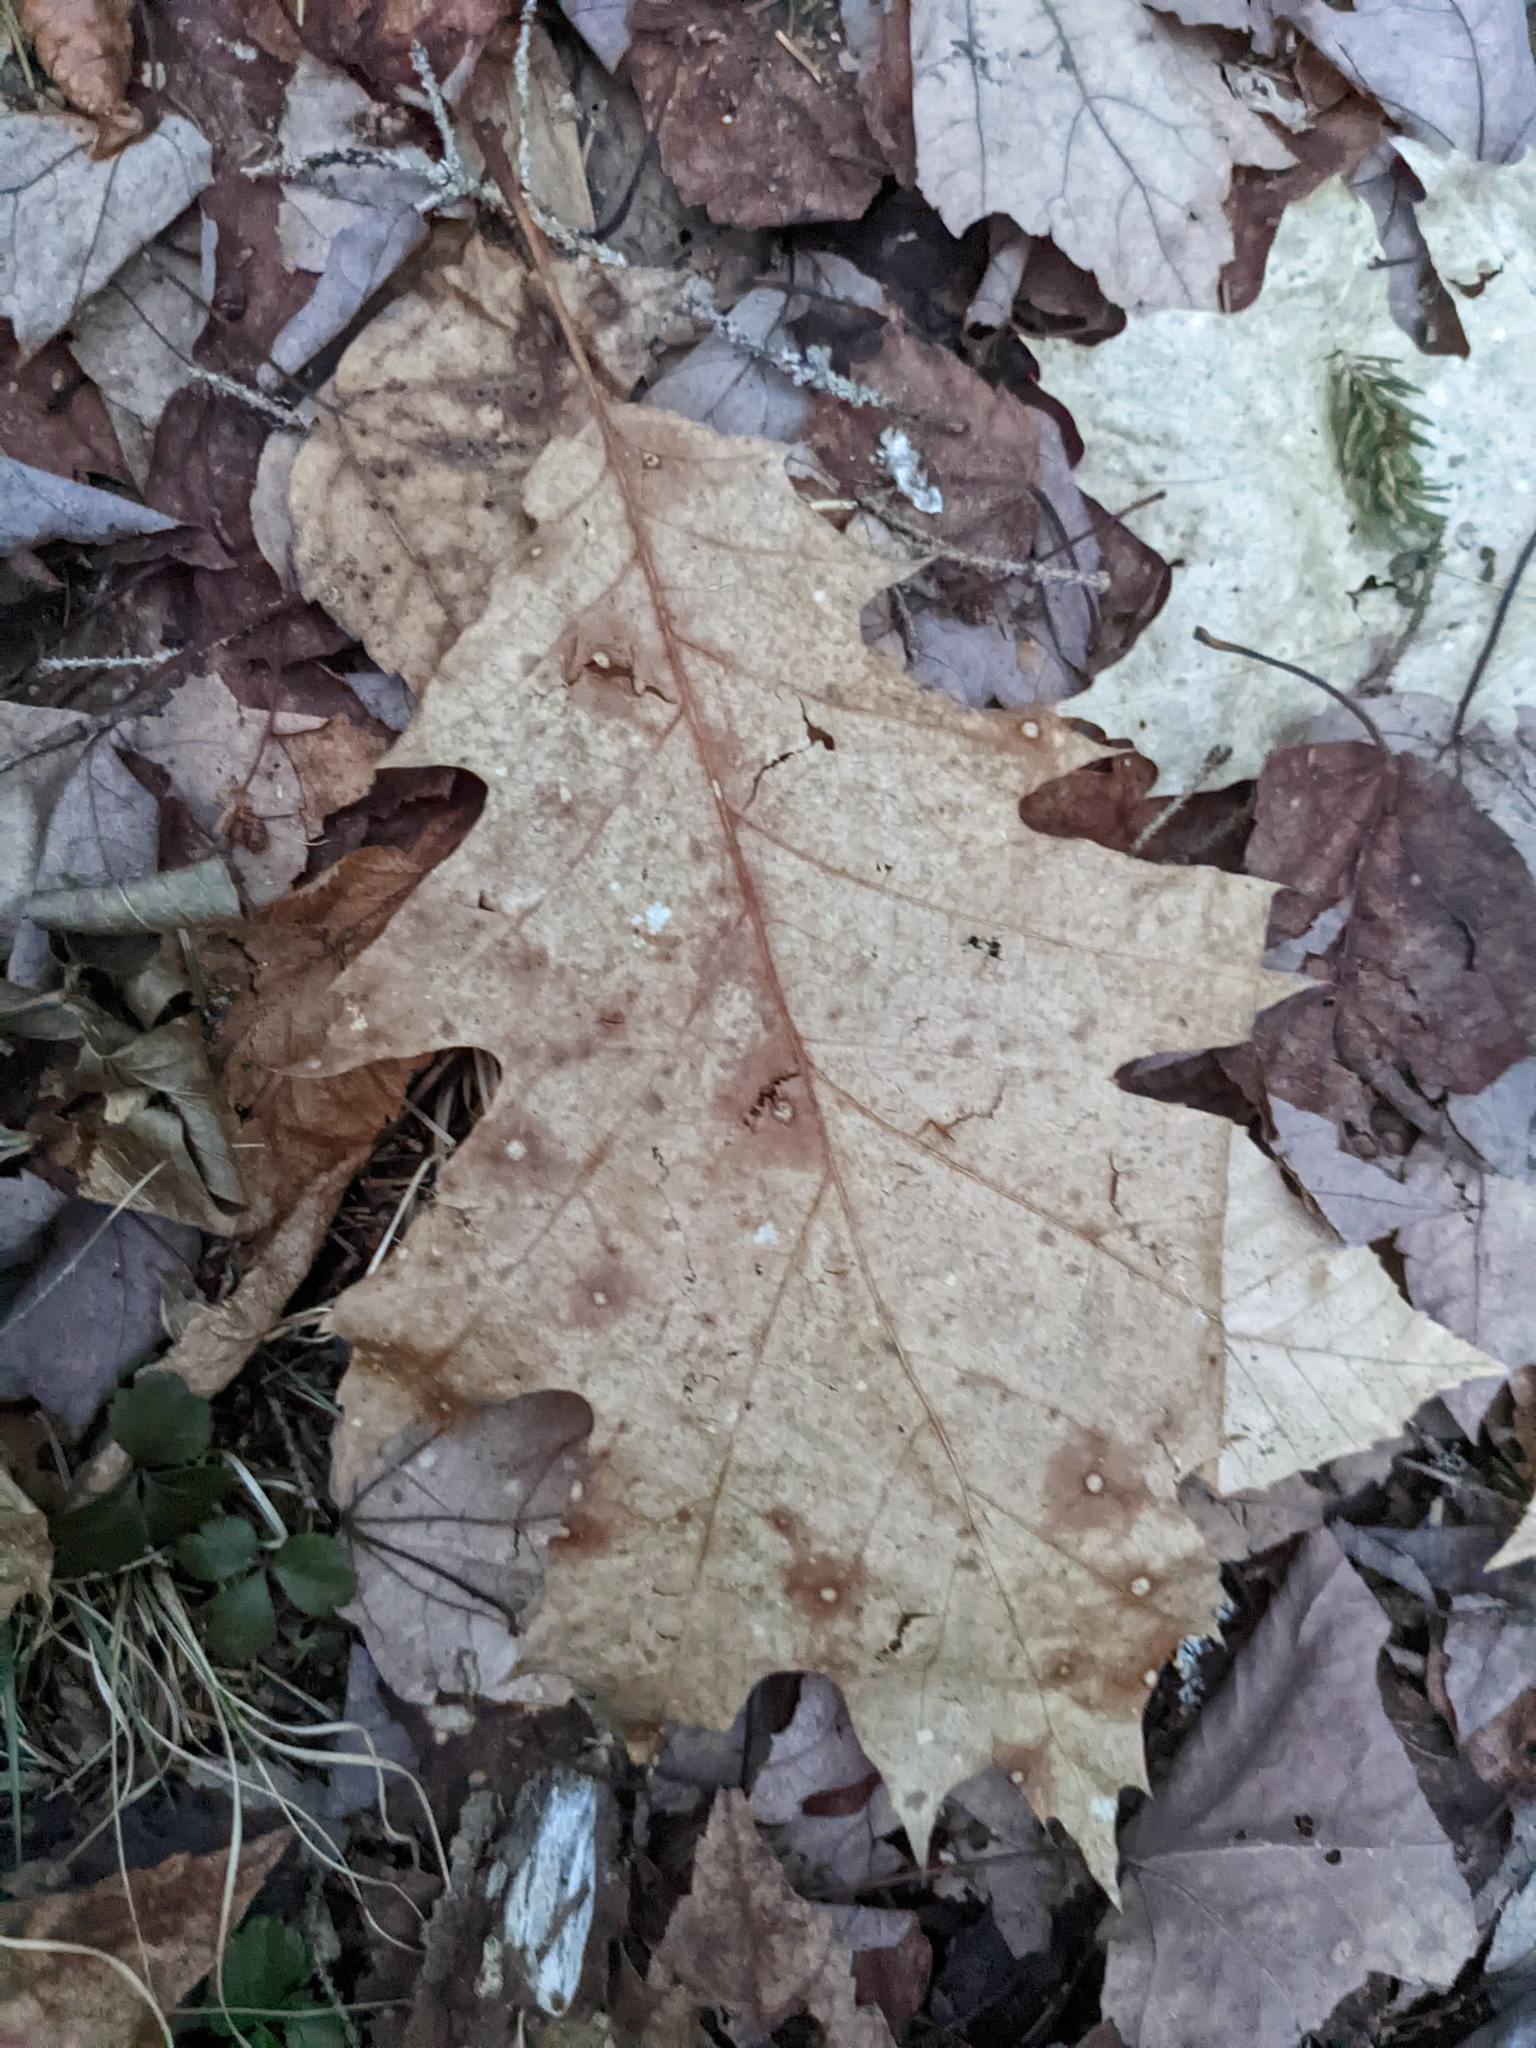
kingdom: Plantae
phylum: Tracheophyta
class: Magnoliopsida
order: Fagales
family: Fagaceae
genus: Quercus
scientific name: Quercus rubra
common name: Red oak
